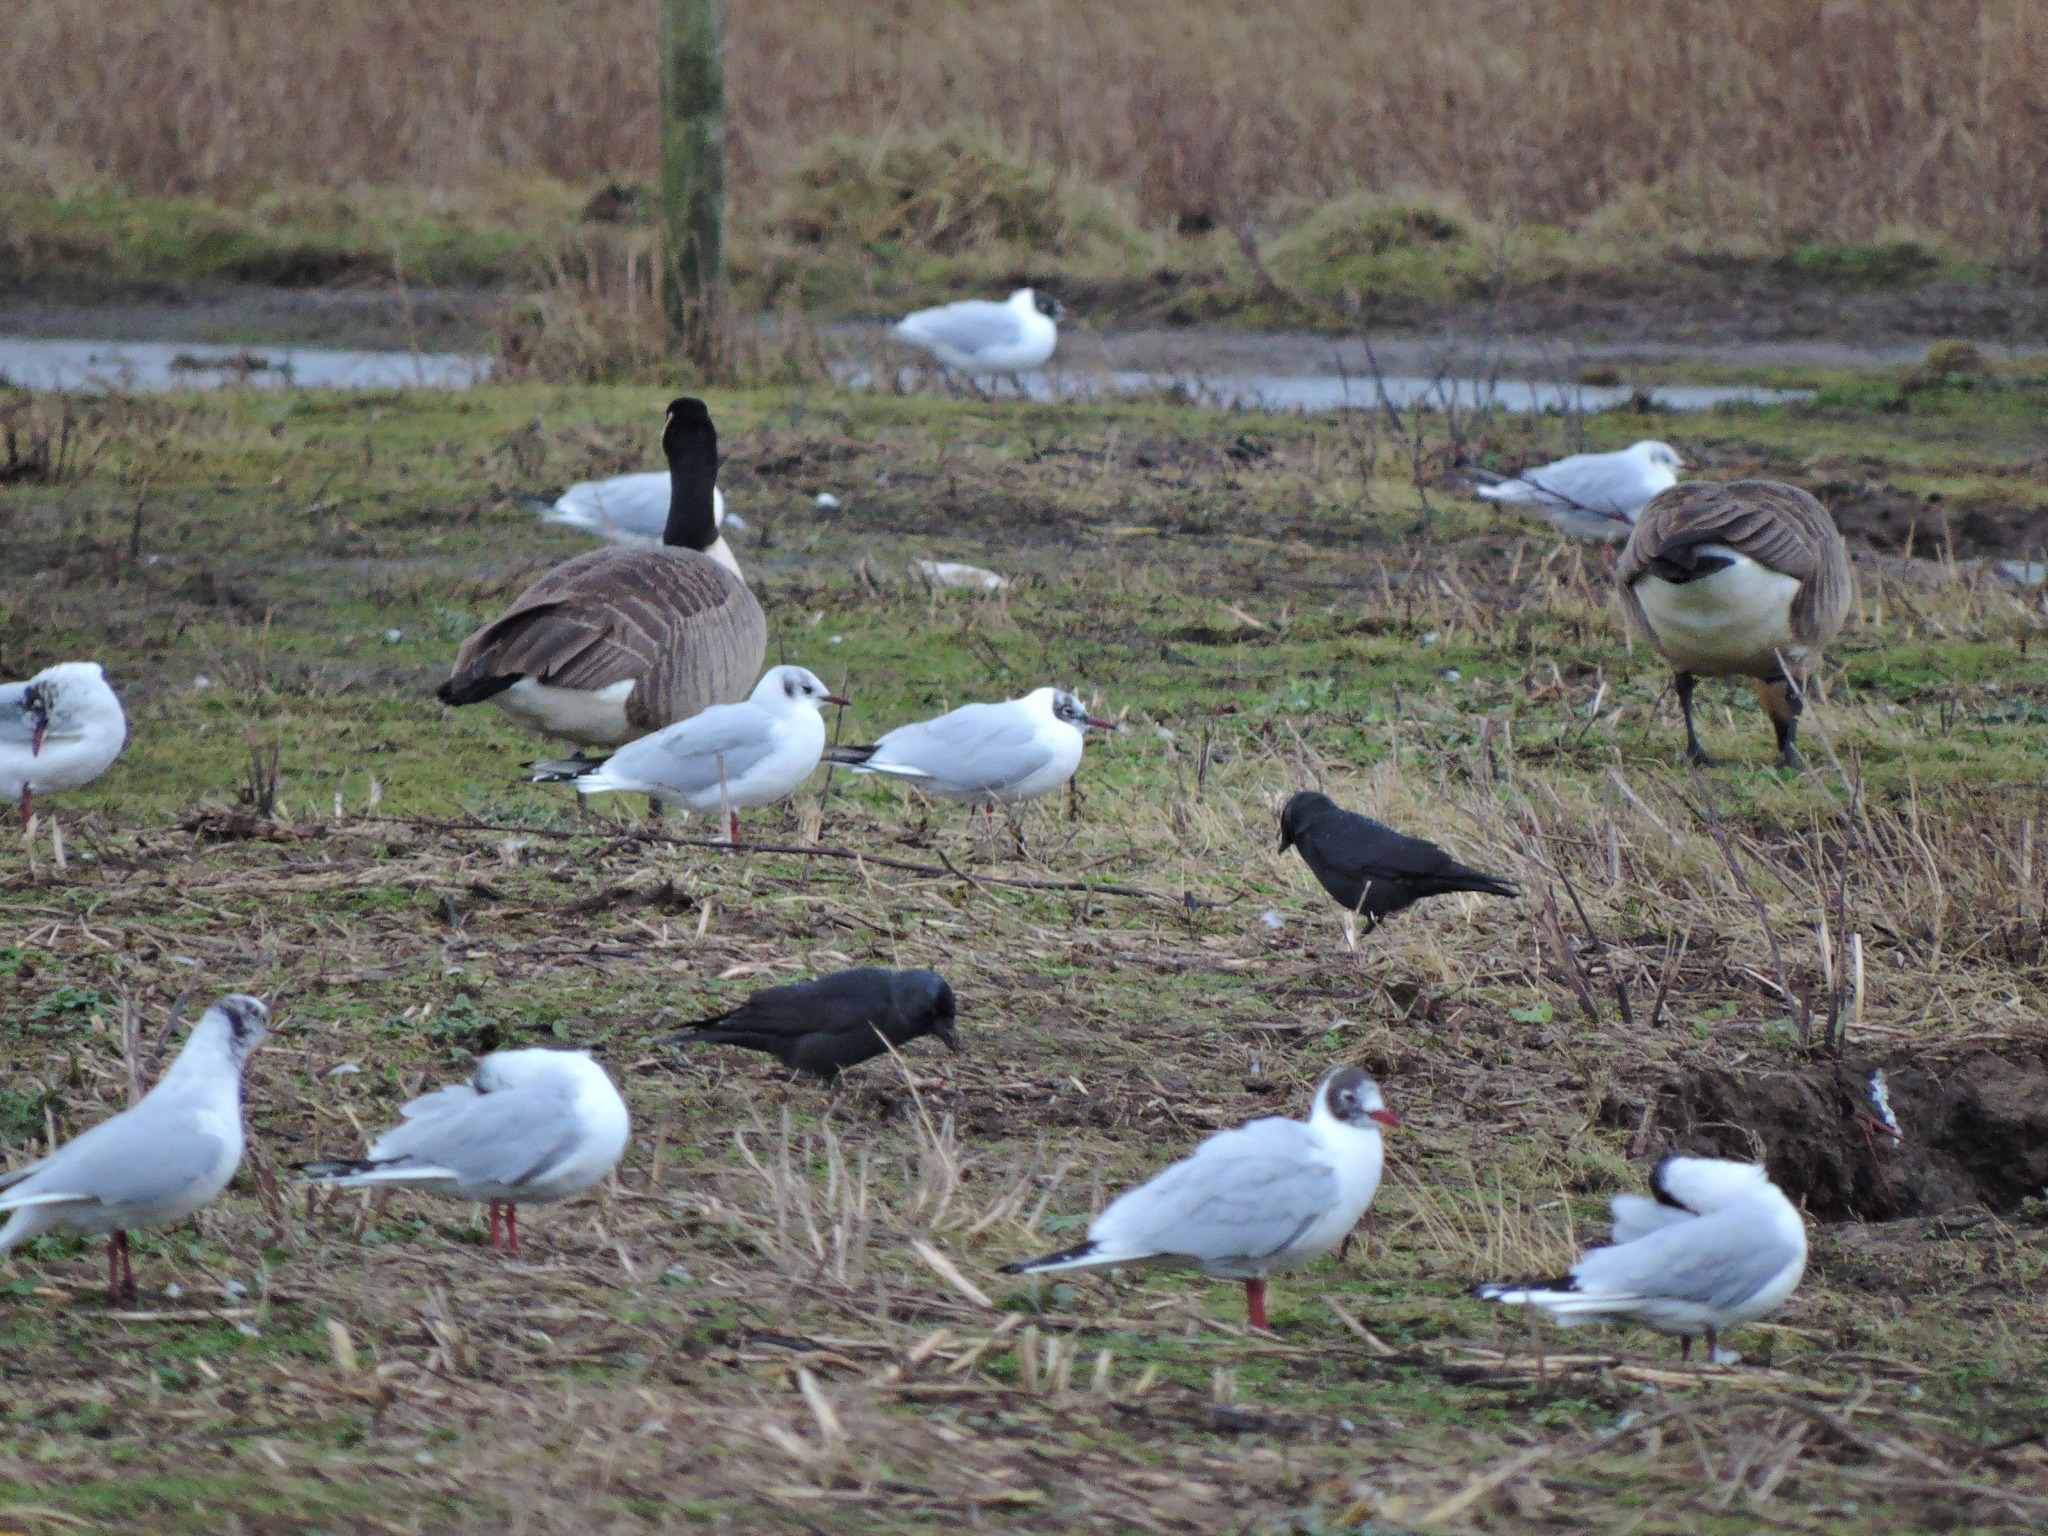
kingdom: Animalia
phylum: Chordata
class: Aves
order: Passeriformes
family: Corvidae
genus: Coloeus
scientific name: Coloeus monedula
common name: Western jackdaw
